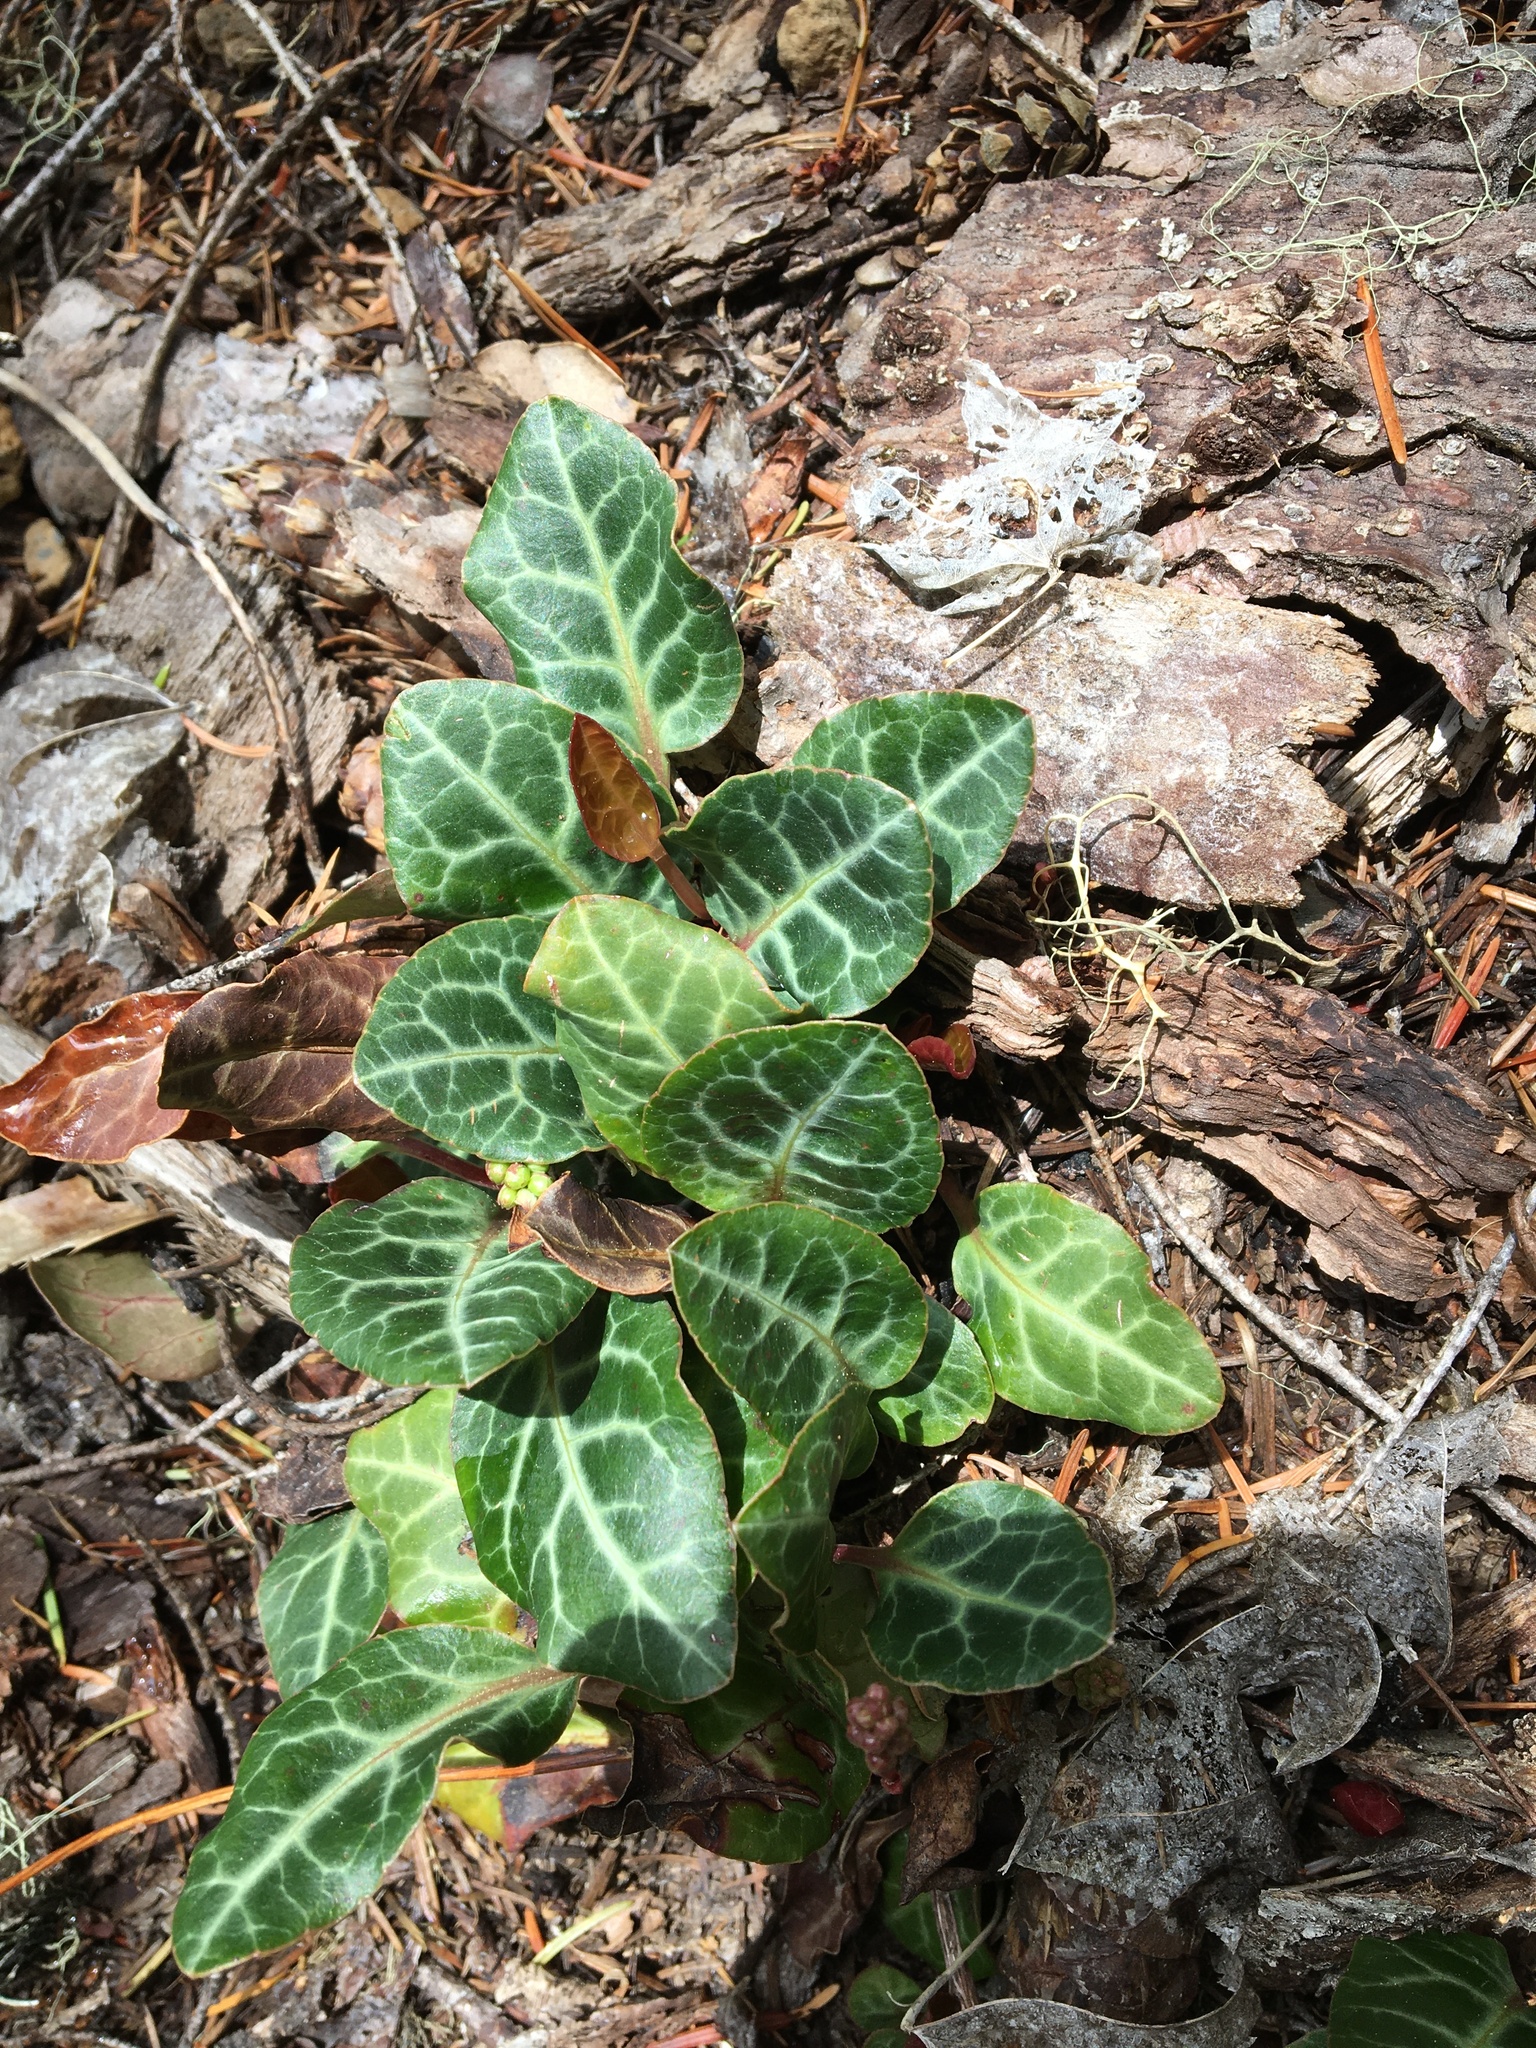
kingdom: Plantae
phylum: Tracheophyta
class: Magnoliopsida
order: Ericales
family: Ericaceae
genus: Pyrola
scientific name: Pyrola picta
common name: White-vein wintergreen
